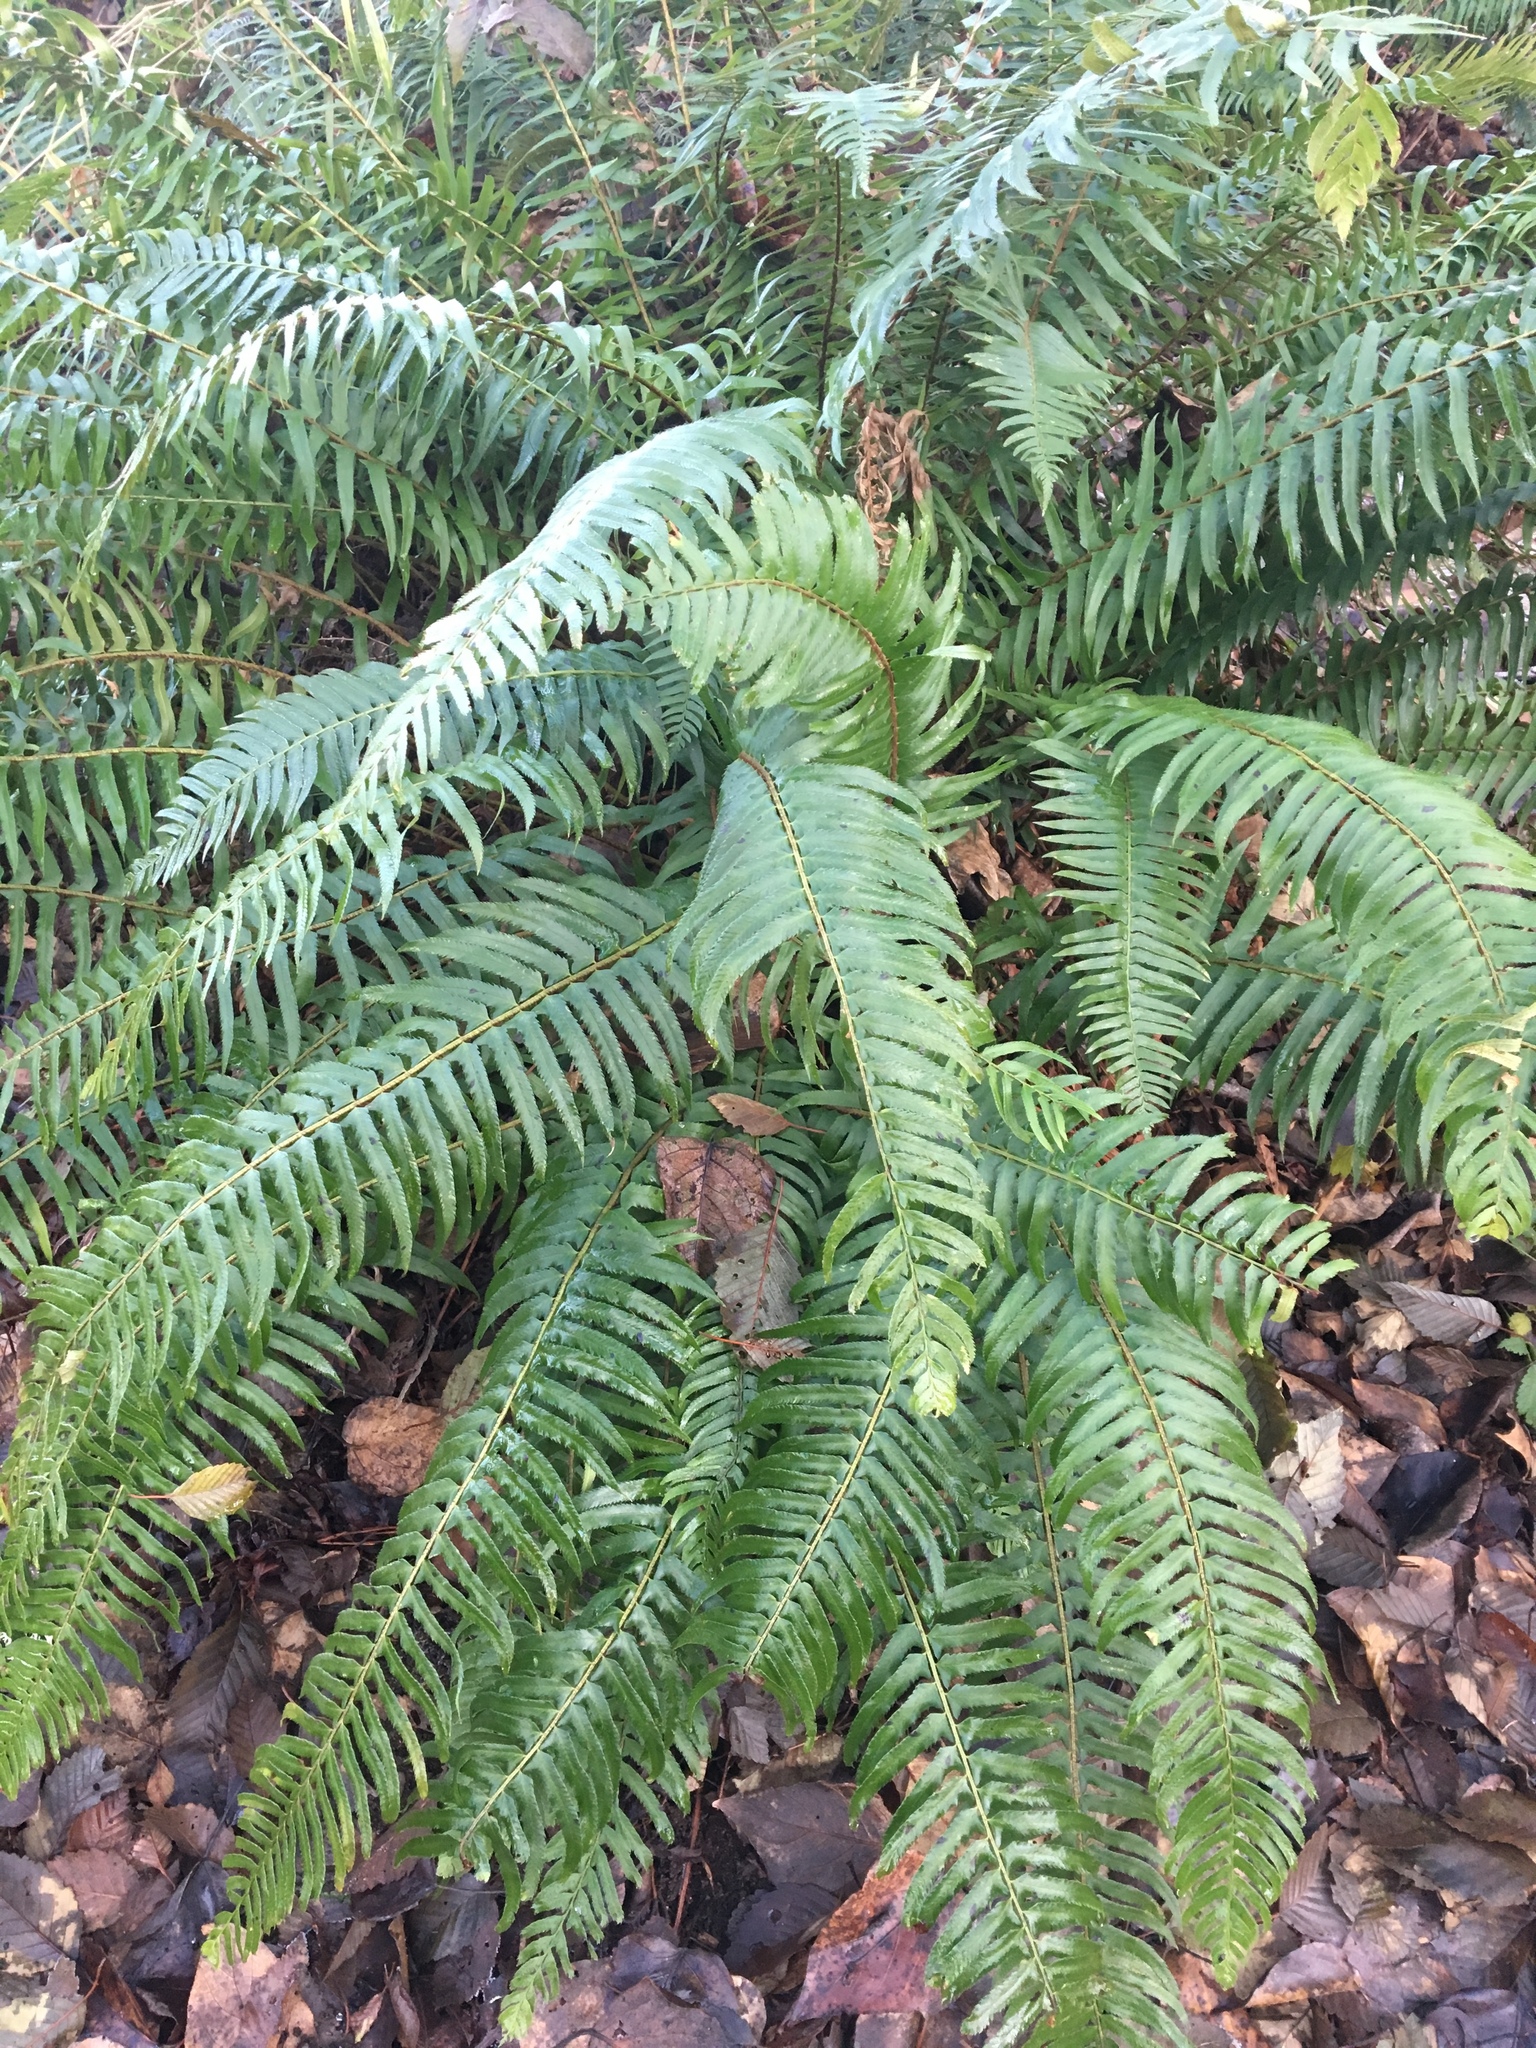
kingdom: Plantae
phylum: Tracheophyta
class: Polypodiopsida
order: Polypodiales
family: Dryopteridaceae
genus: Polystichum
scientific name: Polystichum munitum
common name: Western sword-fern
